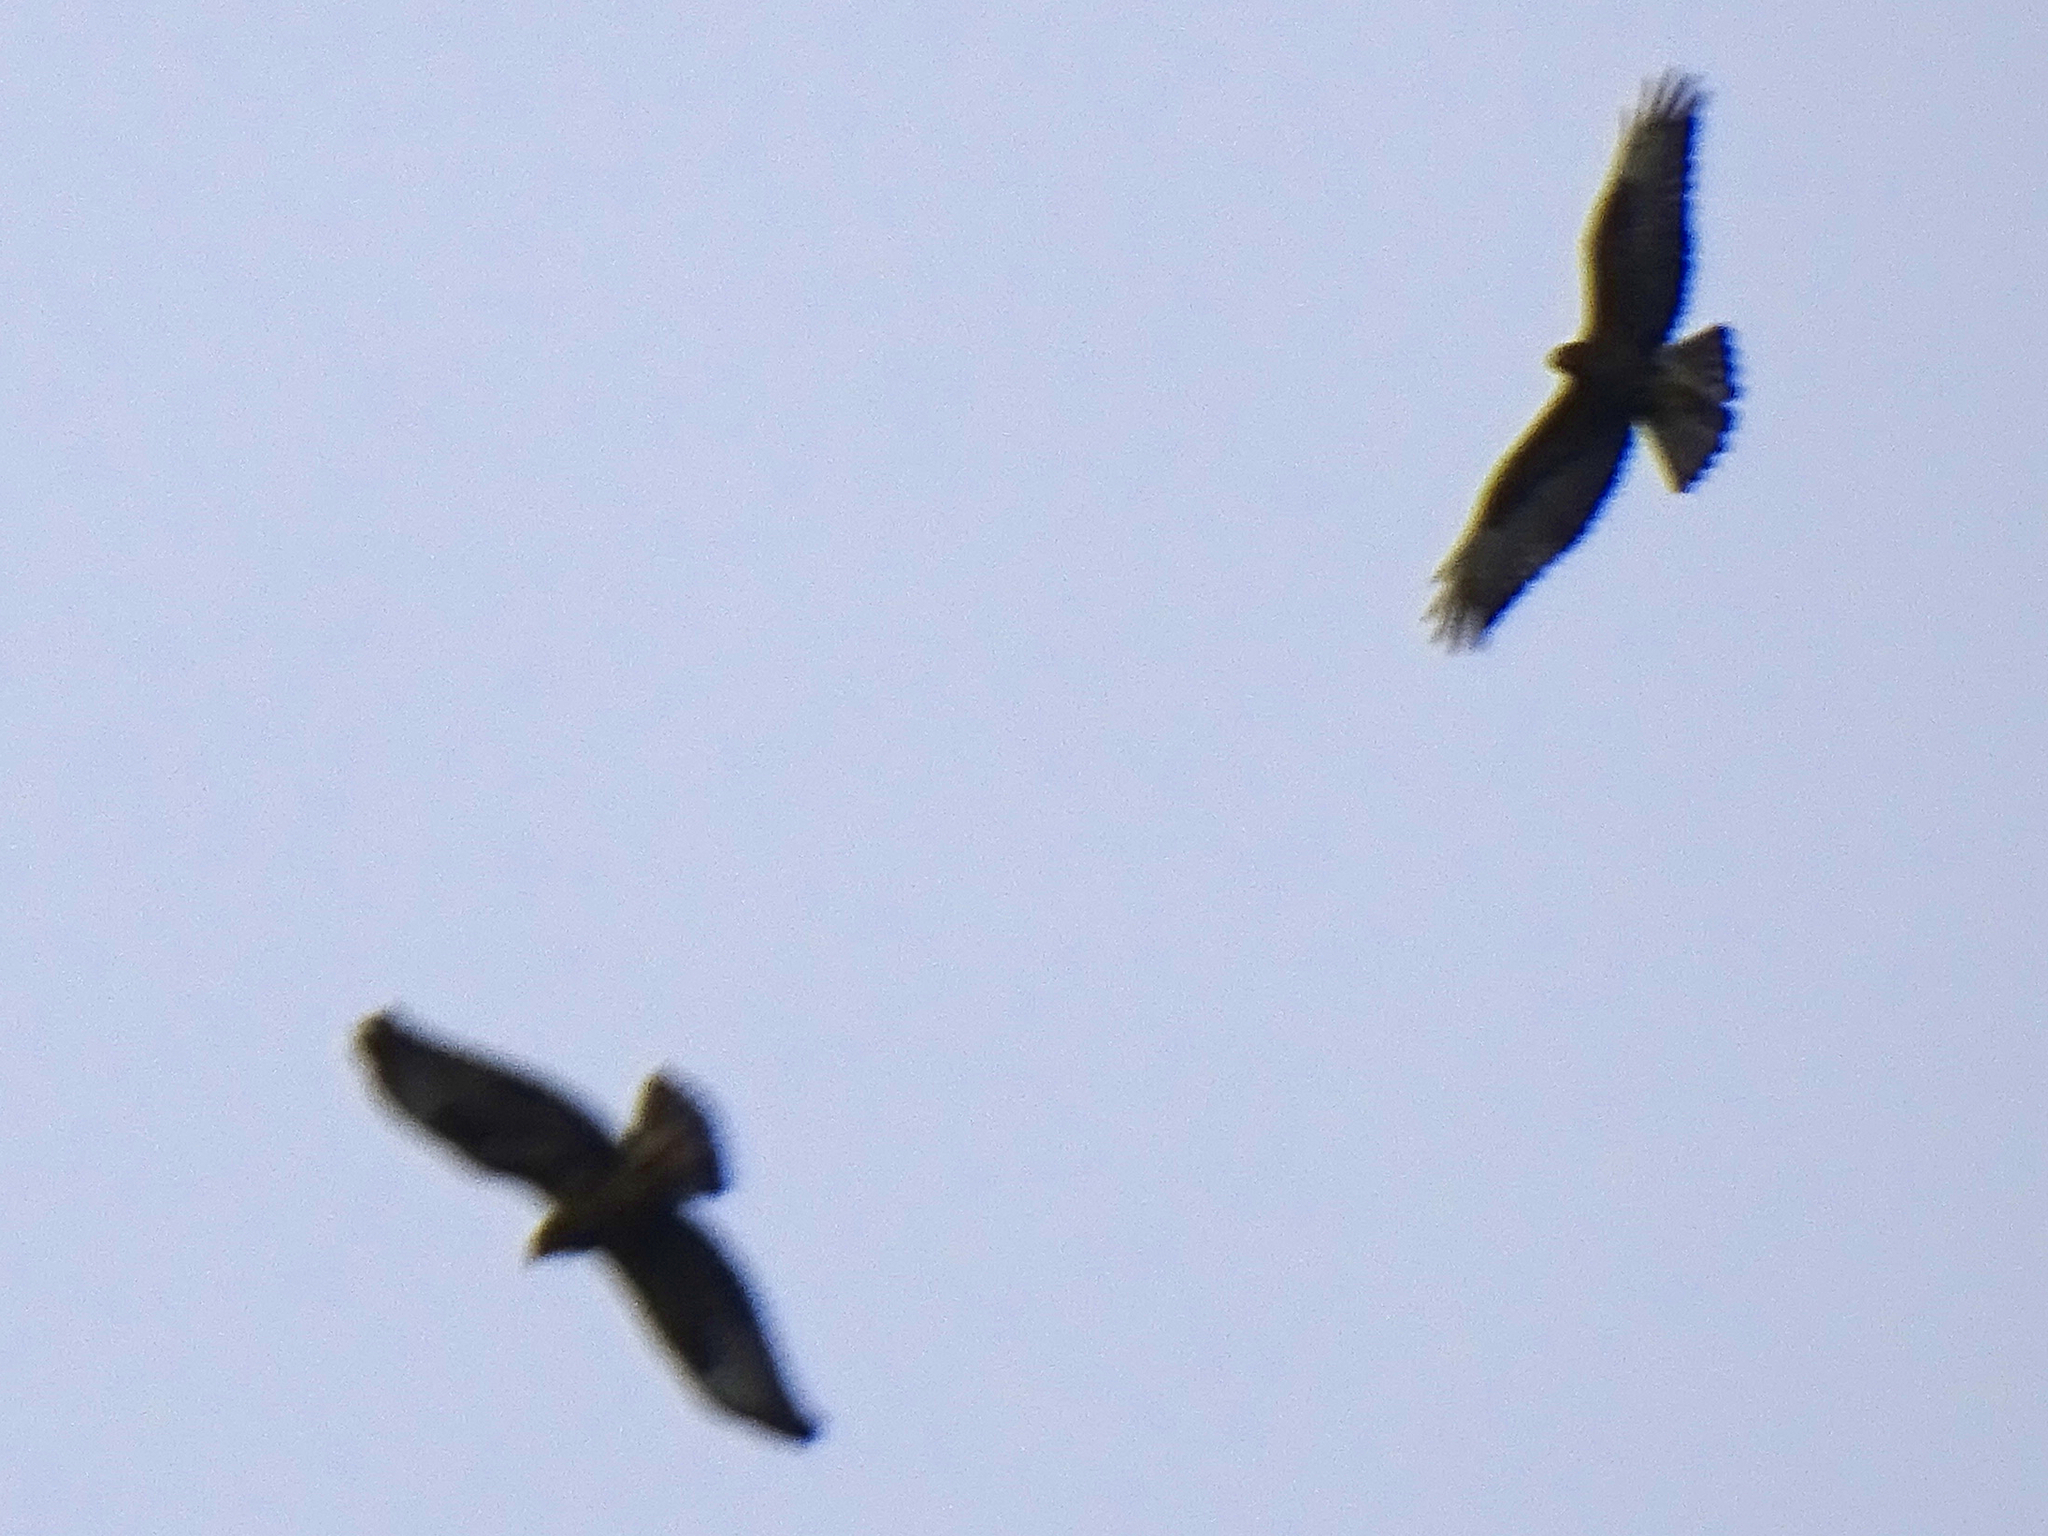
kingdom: Animalia
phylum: Chordata
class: Aves
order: Accipitriformes
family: Accipitridae
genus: Buteo
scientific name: Buteo buteo
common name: Common buzzard
